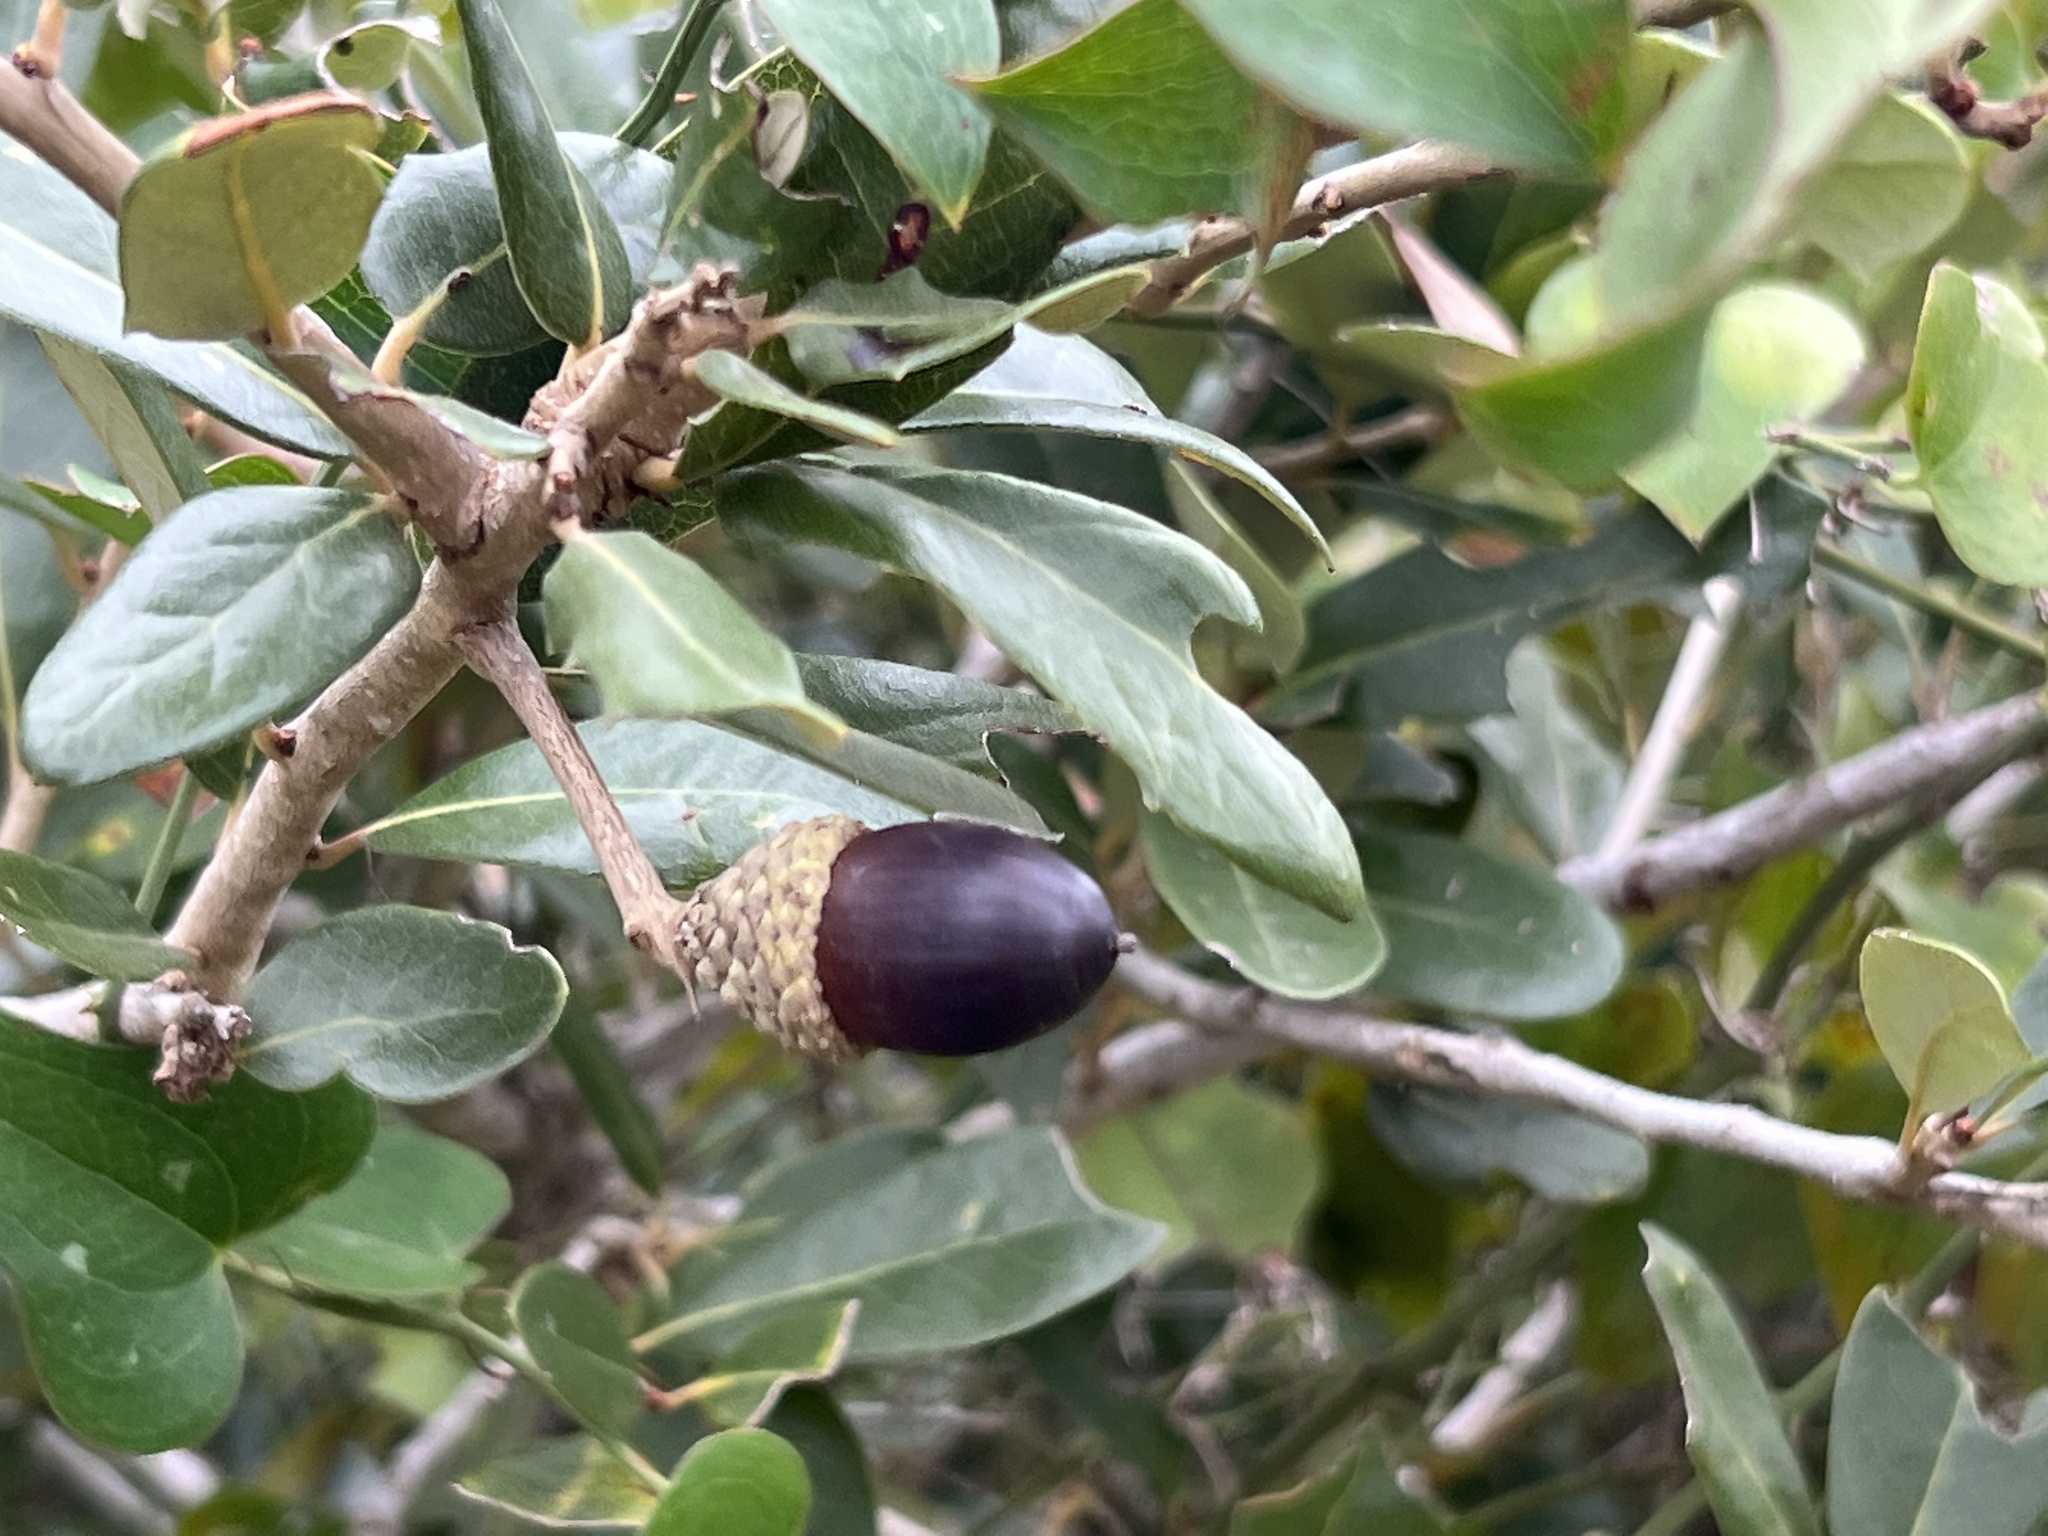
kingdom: Plantae
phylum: Tracheophyta
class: Magnoliopsida
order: Fagales
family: Fagaceae
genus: Quercus
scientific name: Quercus virginiana
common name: Southern live oak
